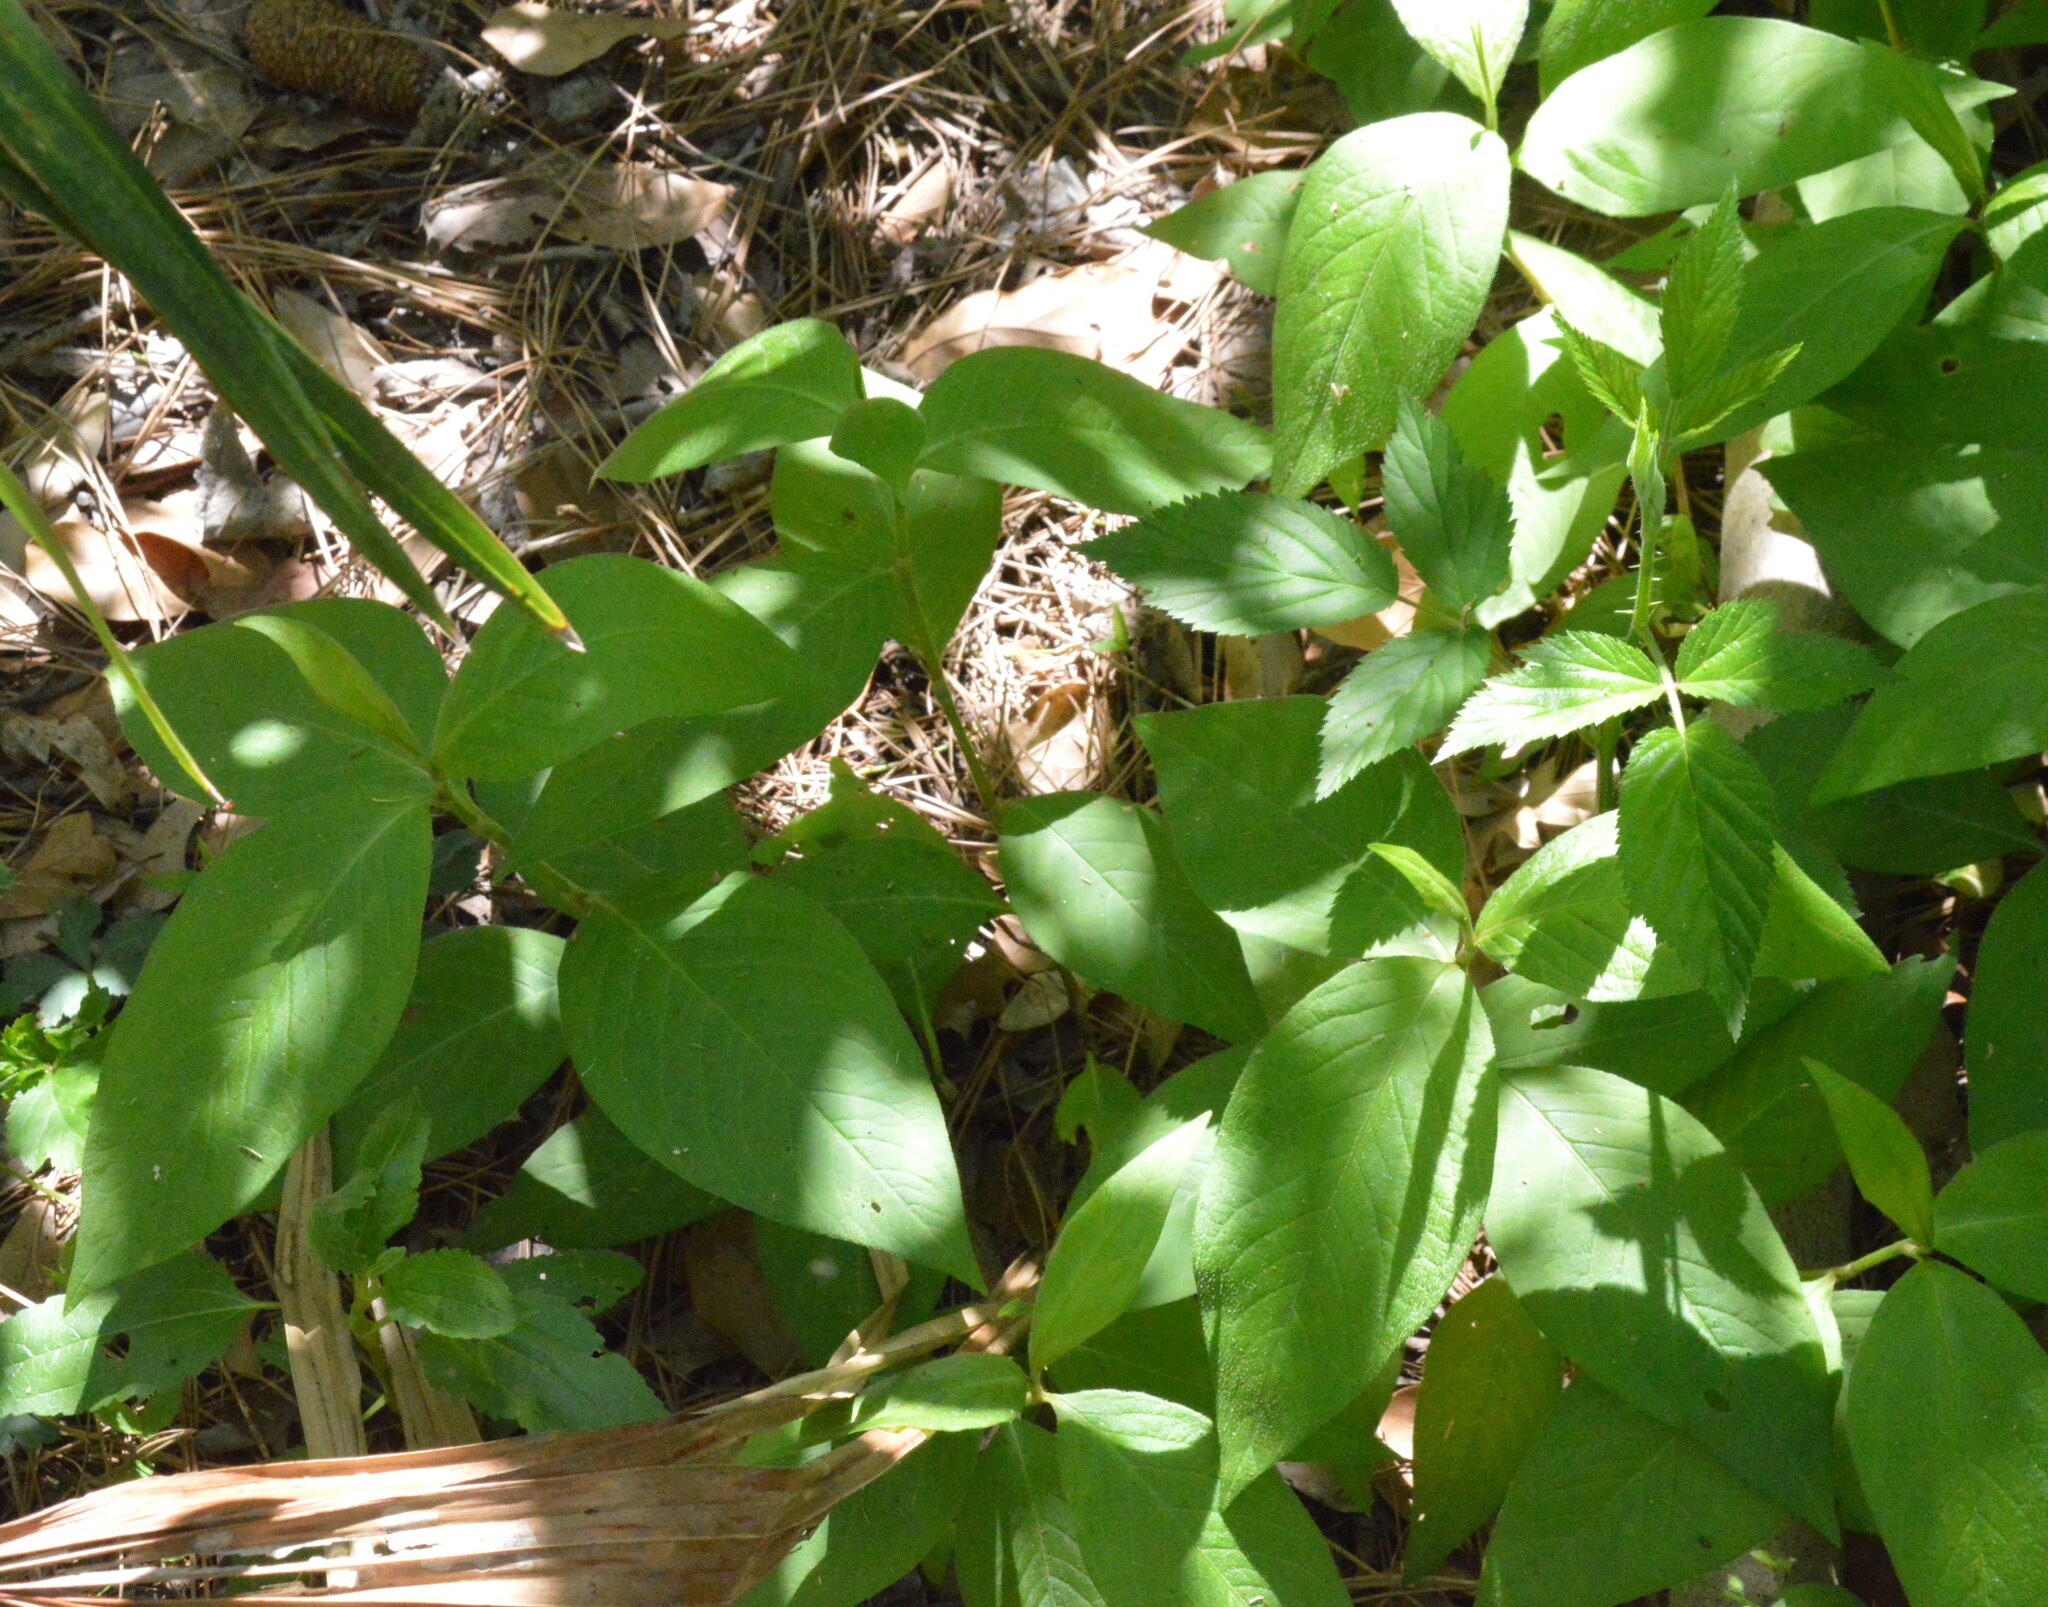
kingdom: Plantae
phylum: Tracheophyta
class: Magnoliopsida
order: Caryophyllales
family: Polygonaceae
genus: Persicaria
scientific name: Persicaria virginiana
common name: Jumpseed
